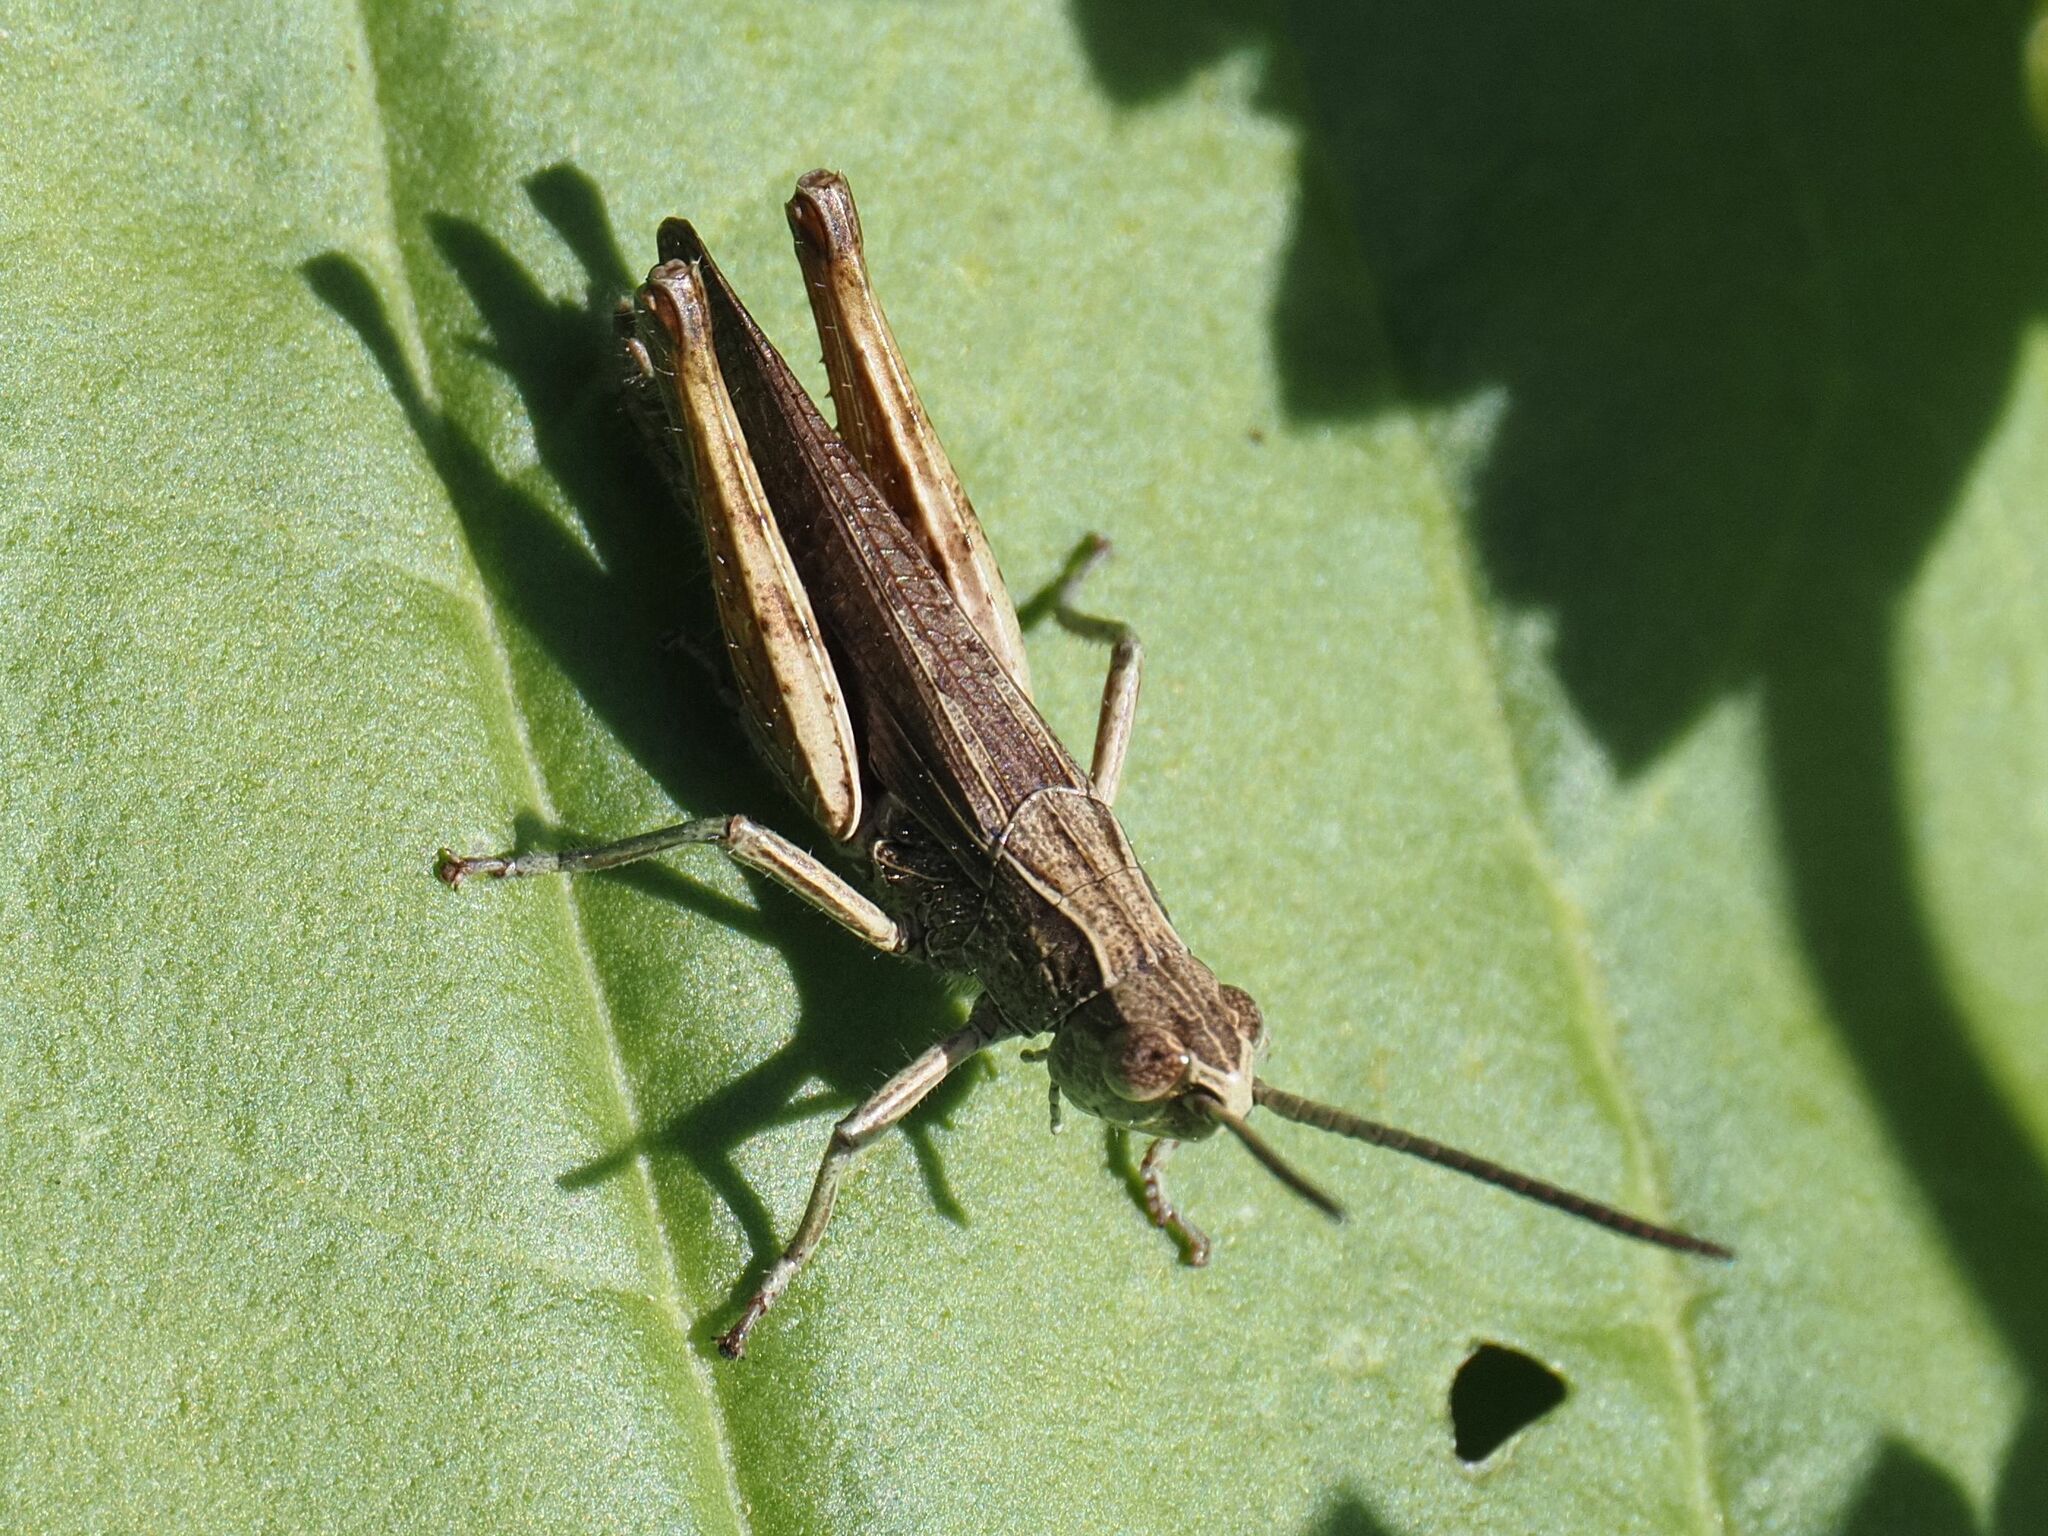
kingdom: Animalia
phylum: Arthropoda
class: Insecta
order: Orthoptera
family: Acrididae
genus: Chorthippus
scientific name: Chorthippus dorsatus
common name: Steppe grasshopper
